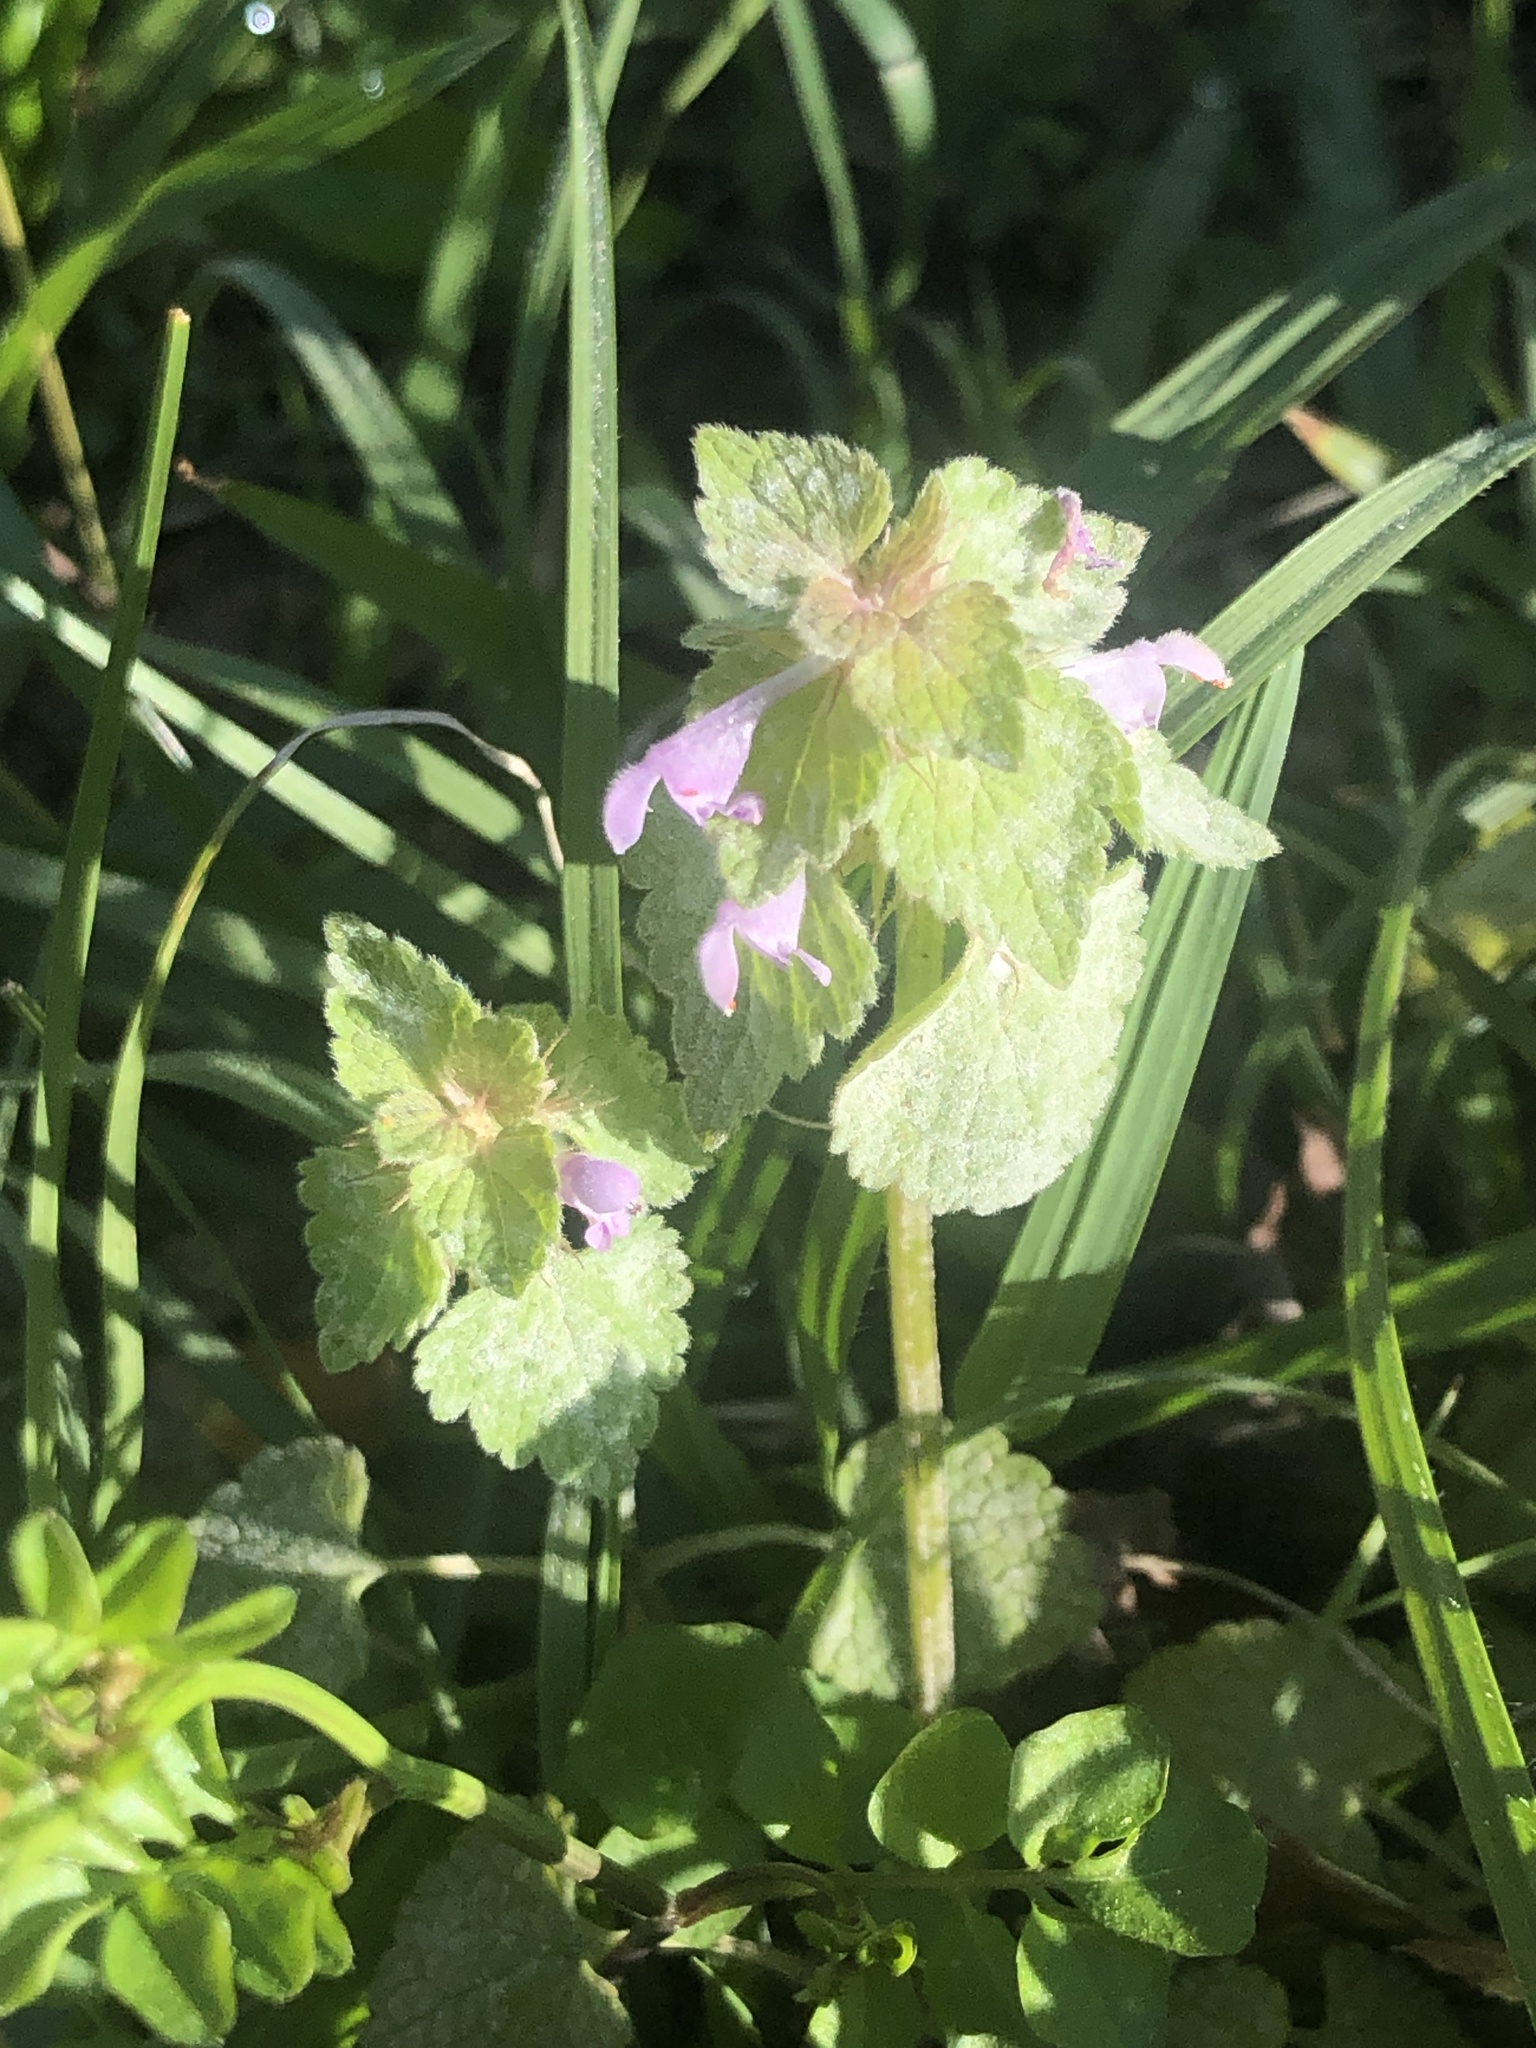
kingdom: Plantae
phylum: Tracheophyta
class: Magnoliopsida
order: Lamiales
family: Lamiaceae
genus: Lamium
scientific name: Lamium purpureum
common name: Red dead-nettle
